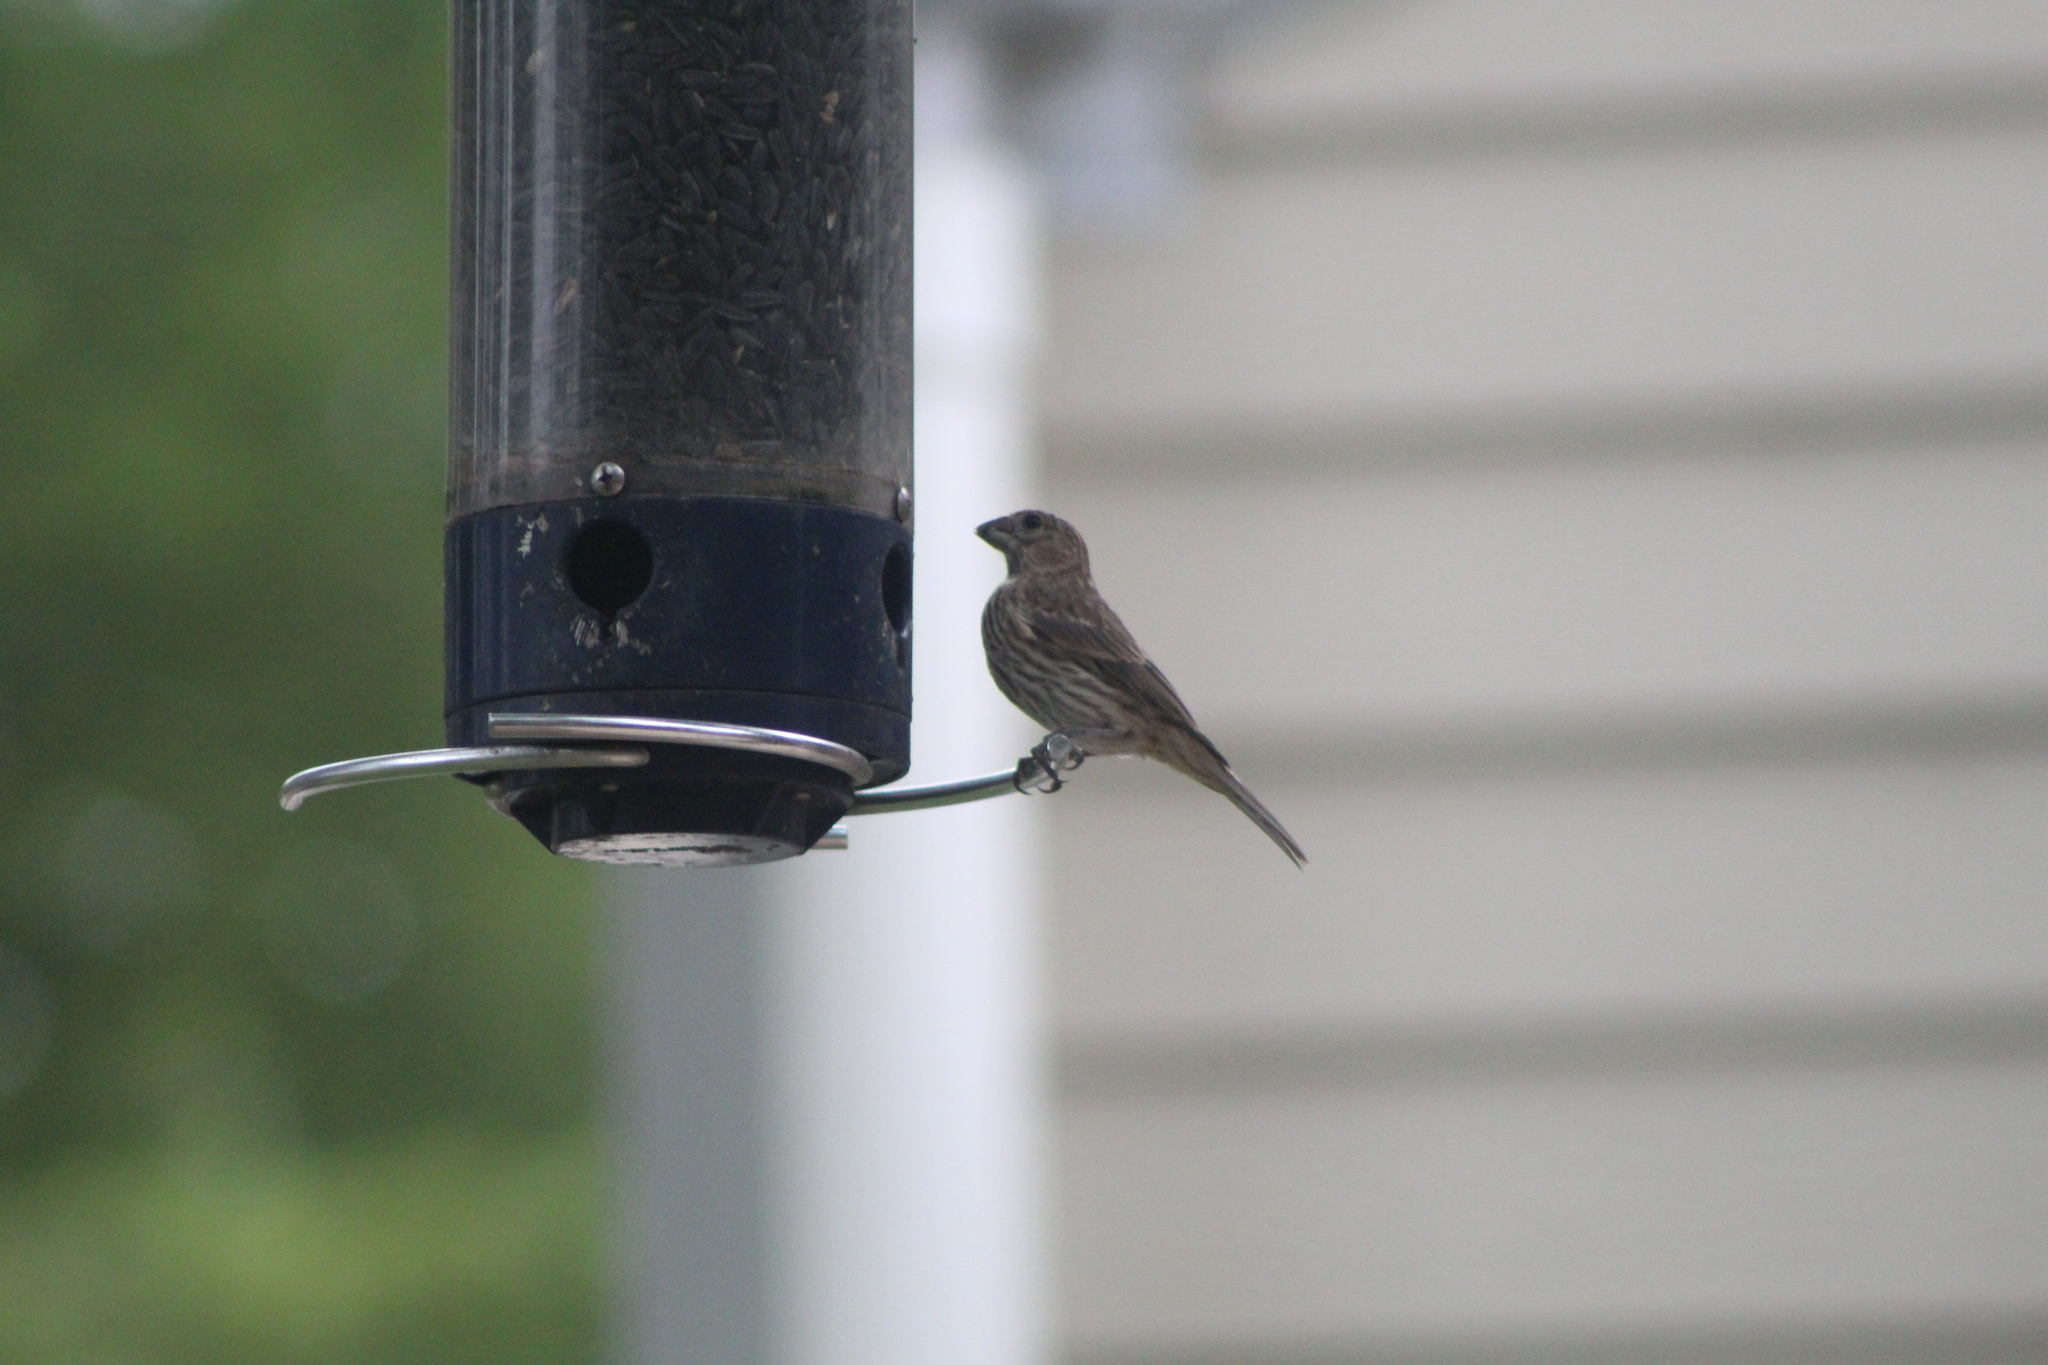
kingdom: Animalia
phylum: Chordata
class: Aves
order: Passeriformes
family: Fringillidae
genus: Haemorhous
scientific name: Haemorhous mexicanus
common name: House finch
